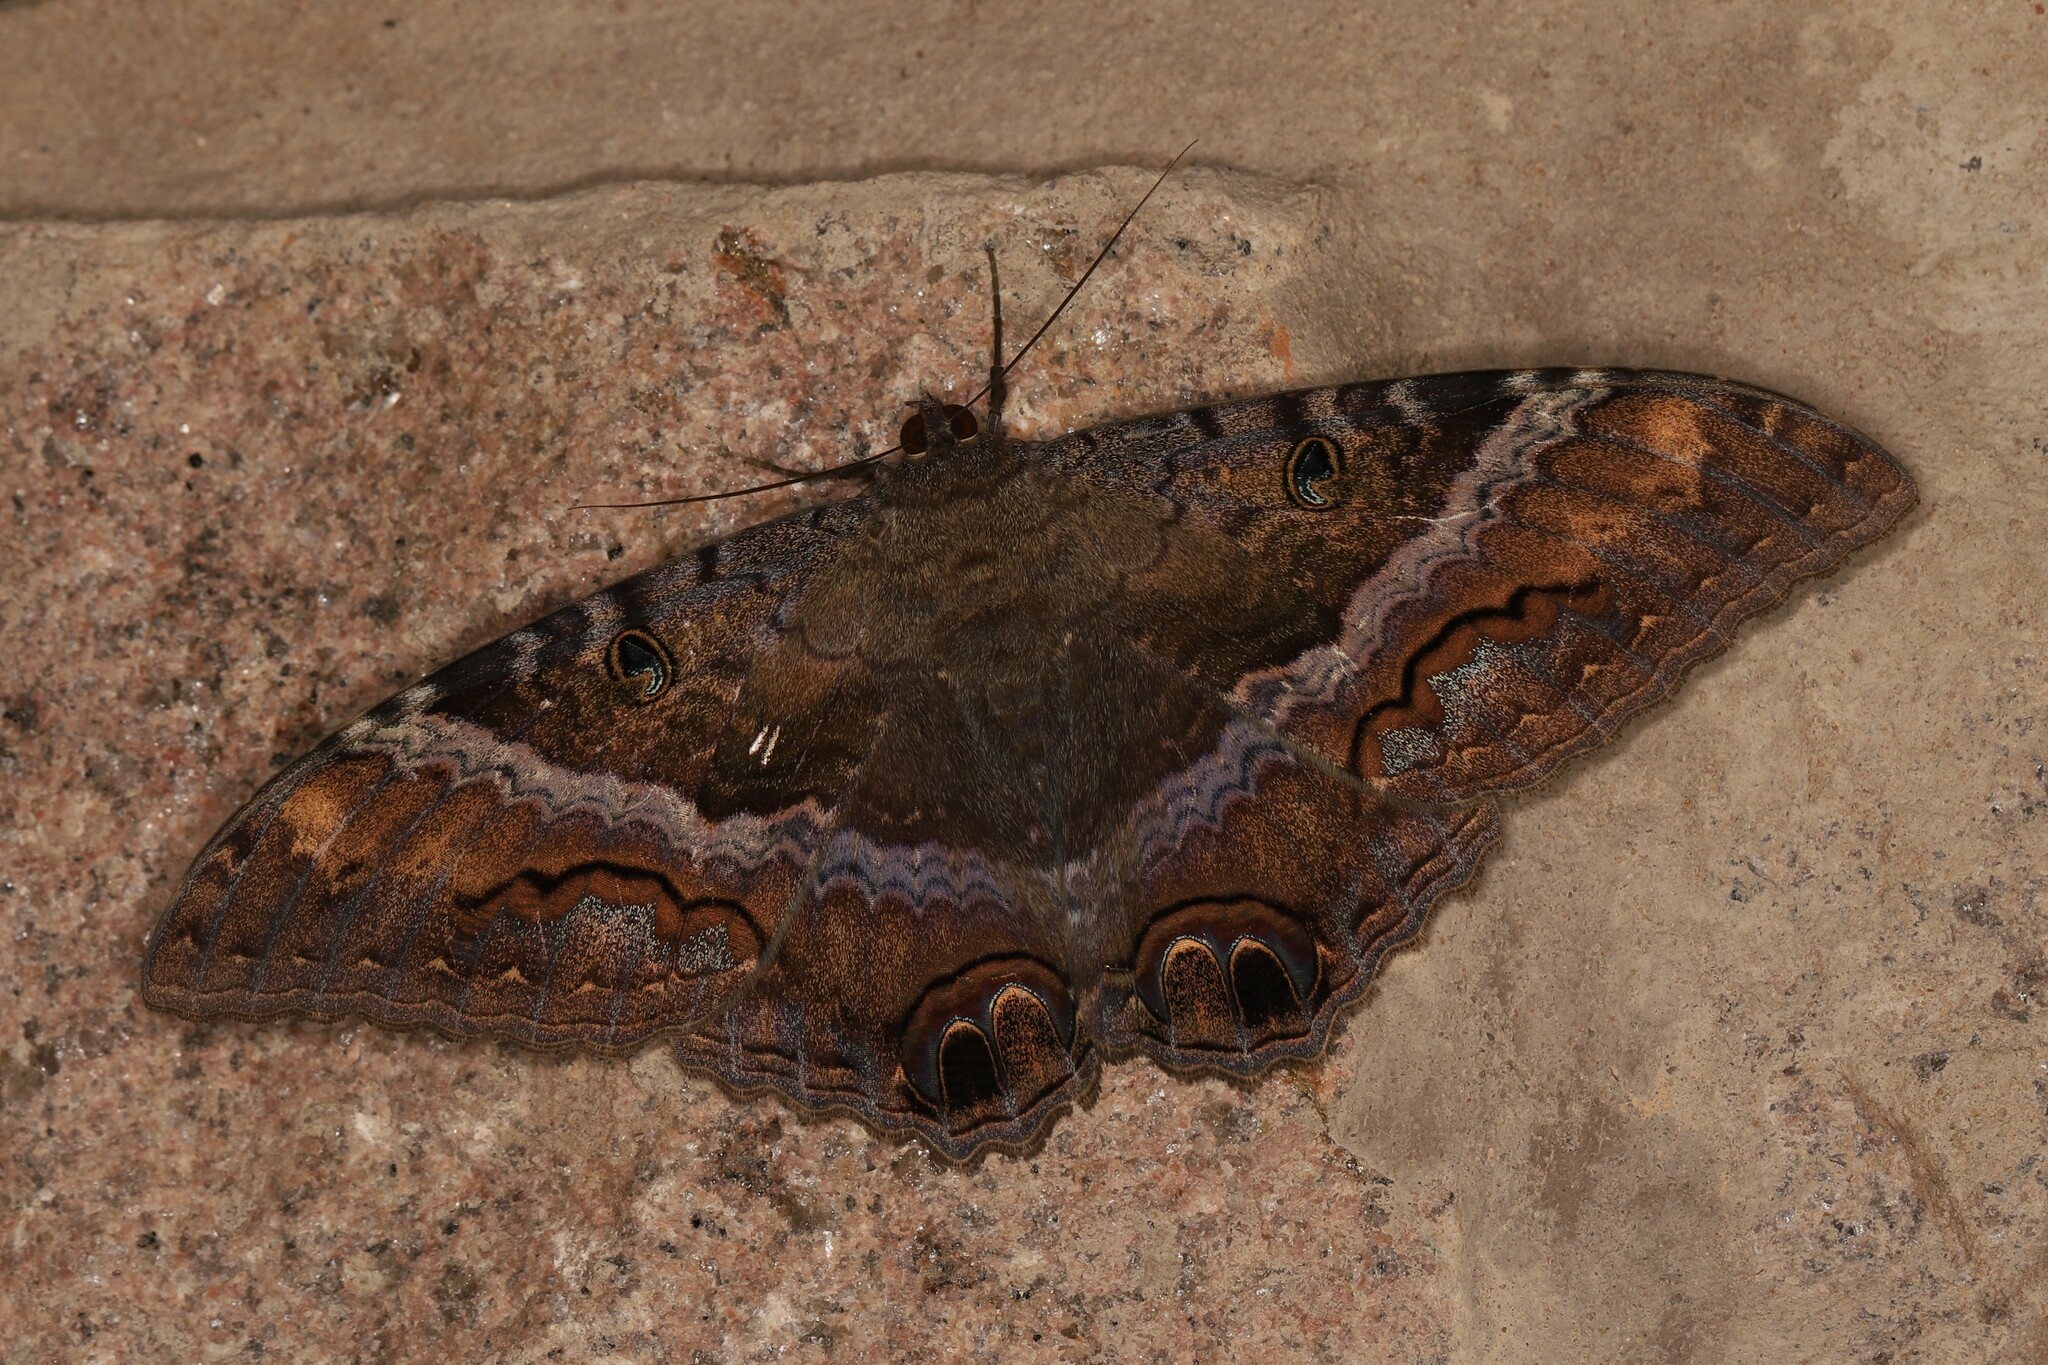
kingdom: Animalia
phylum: Arthropoda
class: Insecta
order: Lepidoptera
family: Erebidae
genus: Ascalapha
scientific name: Ascalapha odorata
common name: Black witch
